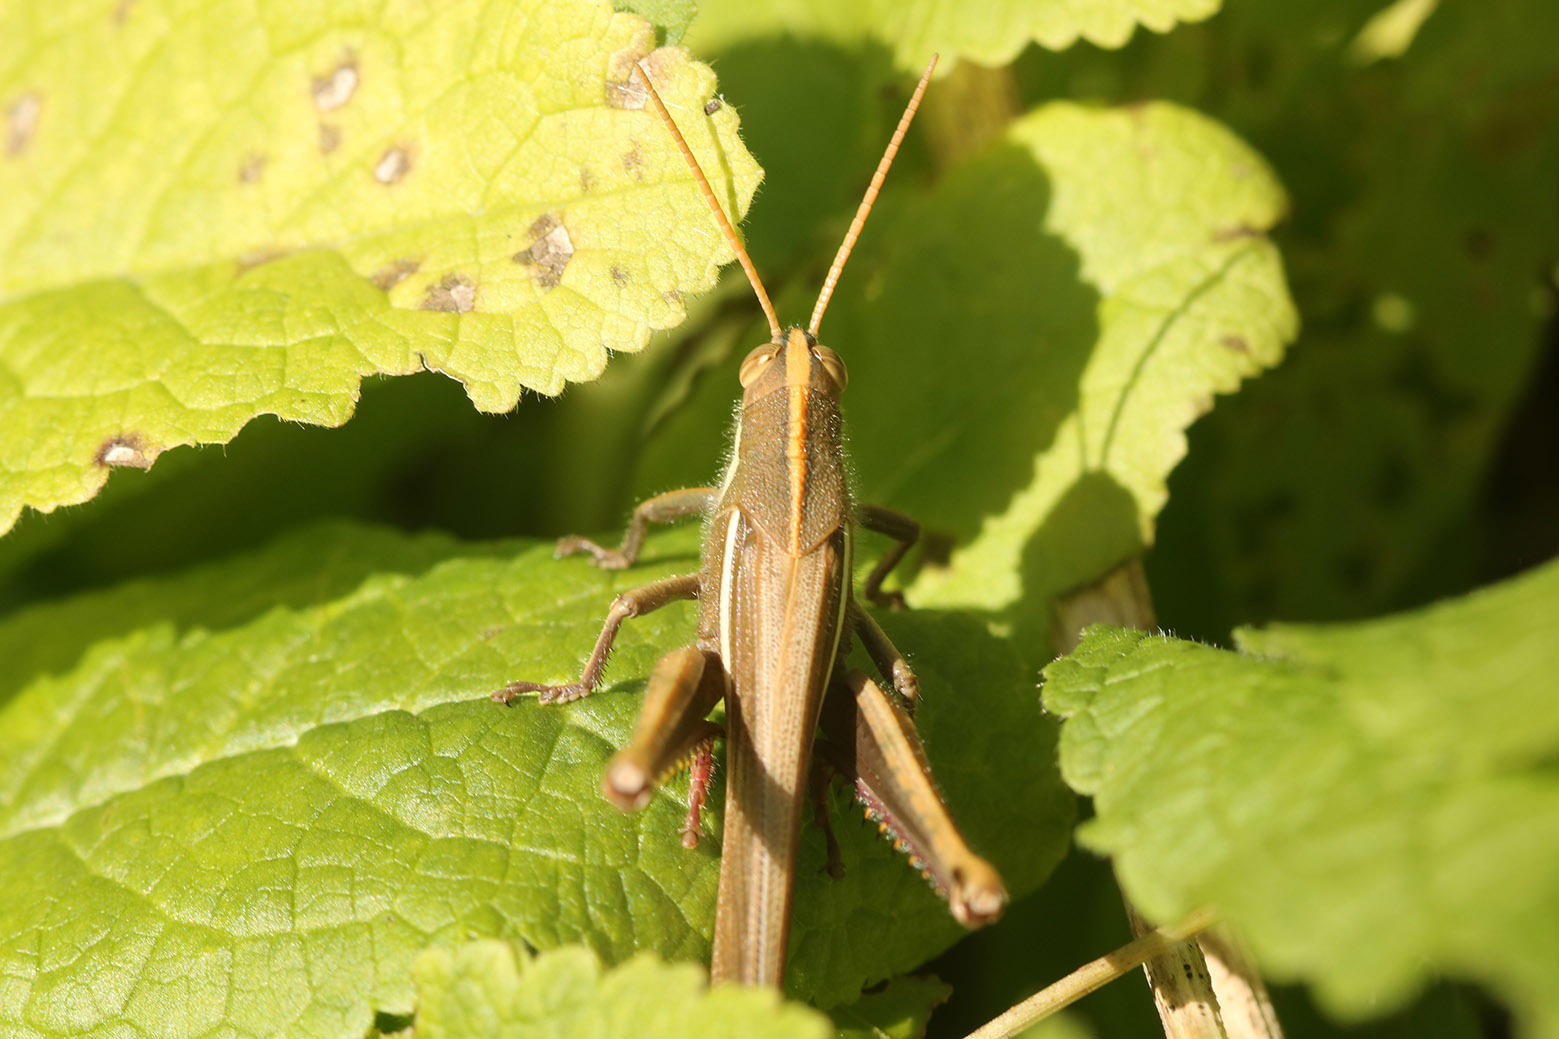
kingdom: Animalia
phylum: Arthropoda
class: Insecta
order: Orthoptera
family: Acrididae
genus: Schistocerca
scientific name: Schistocerca flavofasciata
